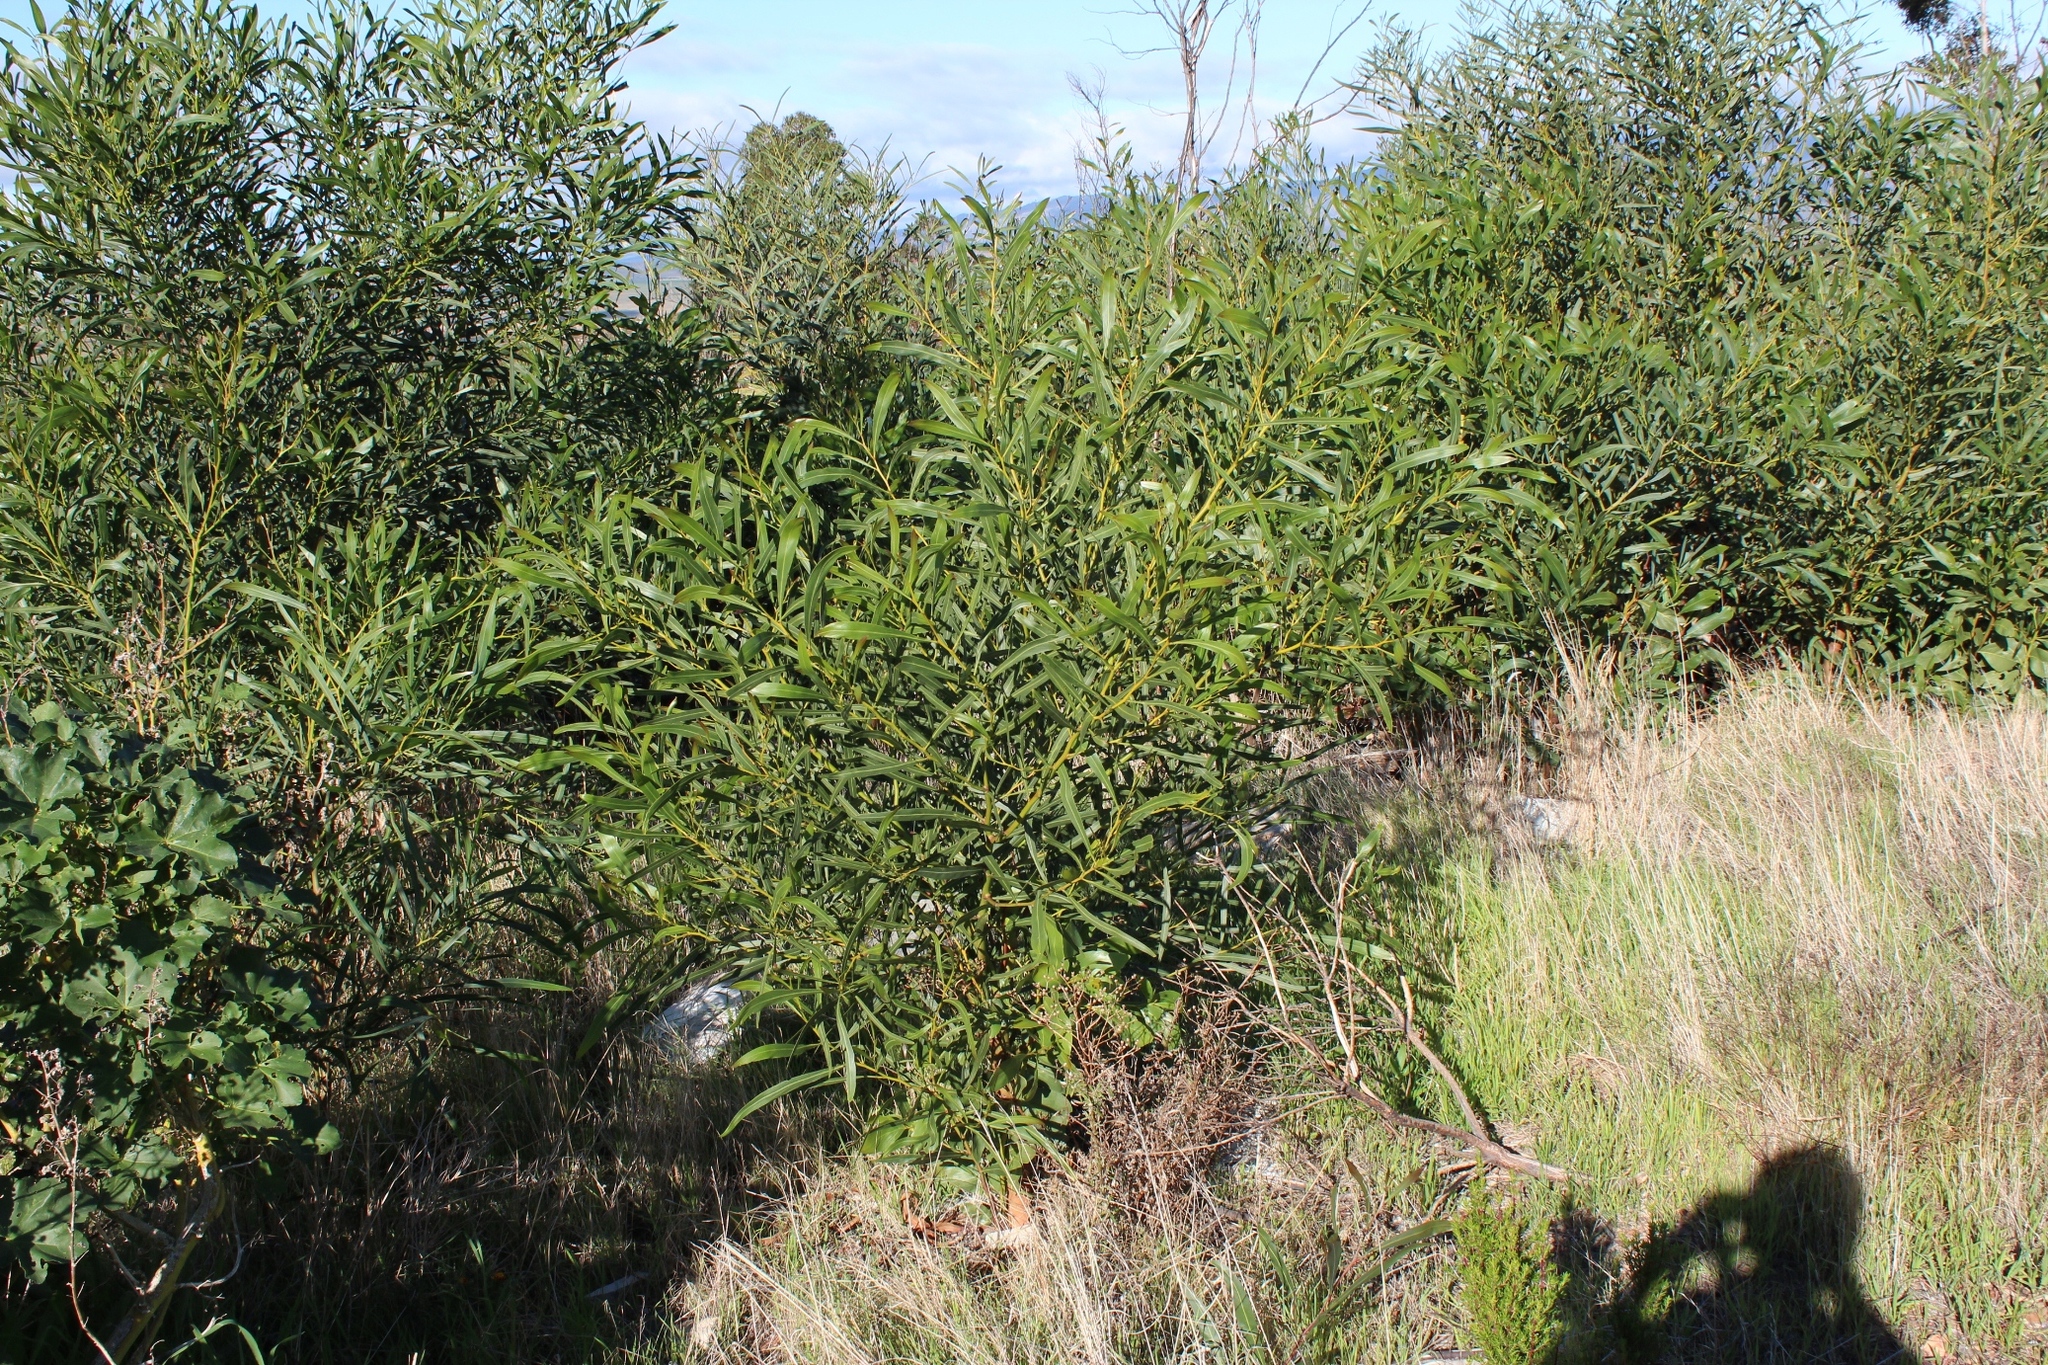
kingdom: Plantae
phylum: Tracheophyta
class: Magnoliopsida
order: Fabales
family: Fabaceae
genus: Acacia
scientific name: Acacia saligna
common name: Orange wattle
